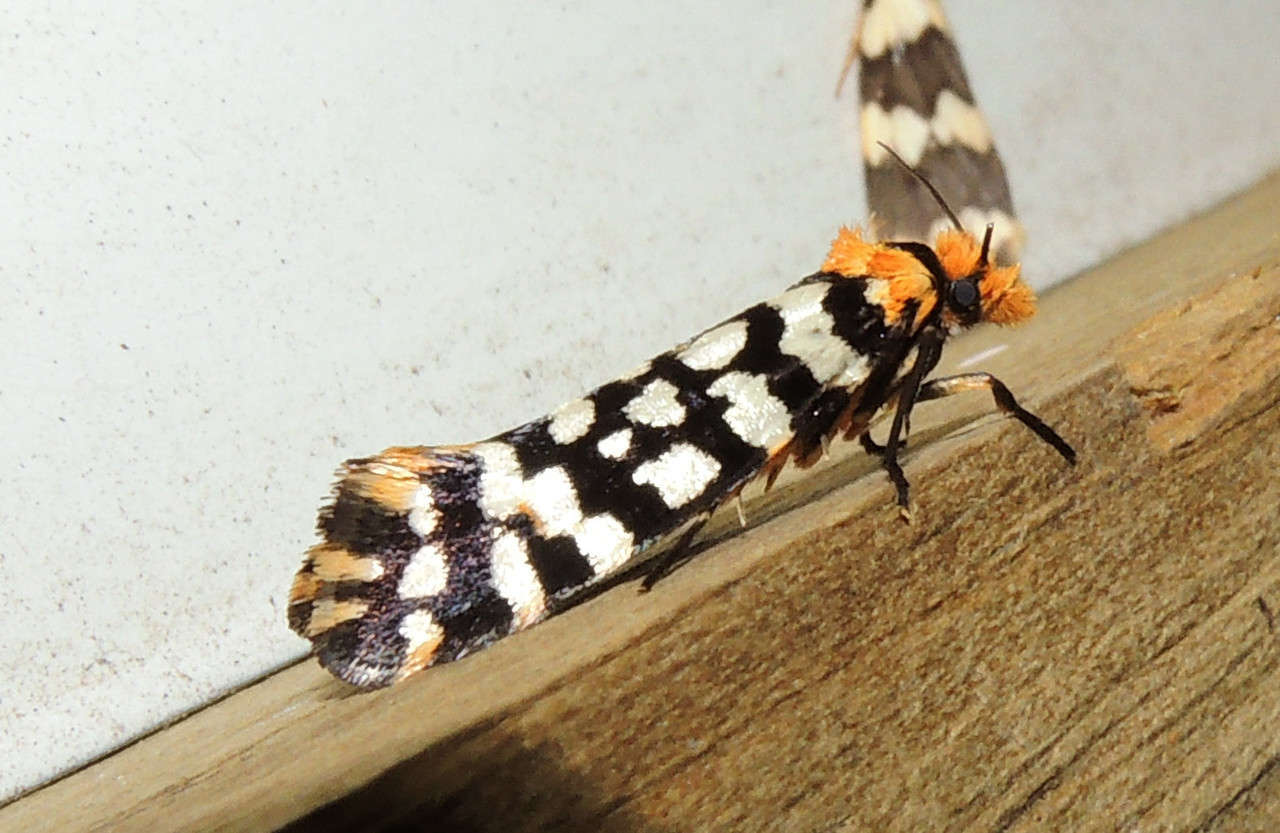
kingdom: Animalia
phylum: Arthropoda
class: Insecta
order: Lepidoptera
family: Tineidae
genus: Moerarchis
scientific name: Moerarchis australasiella
